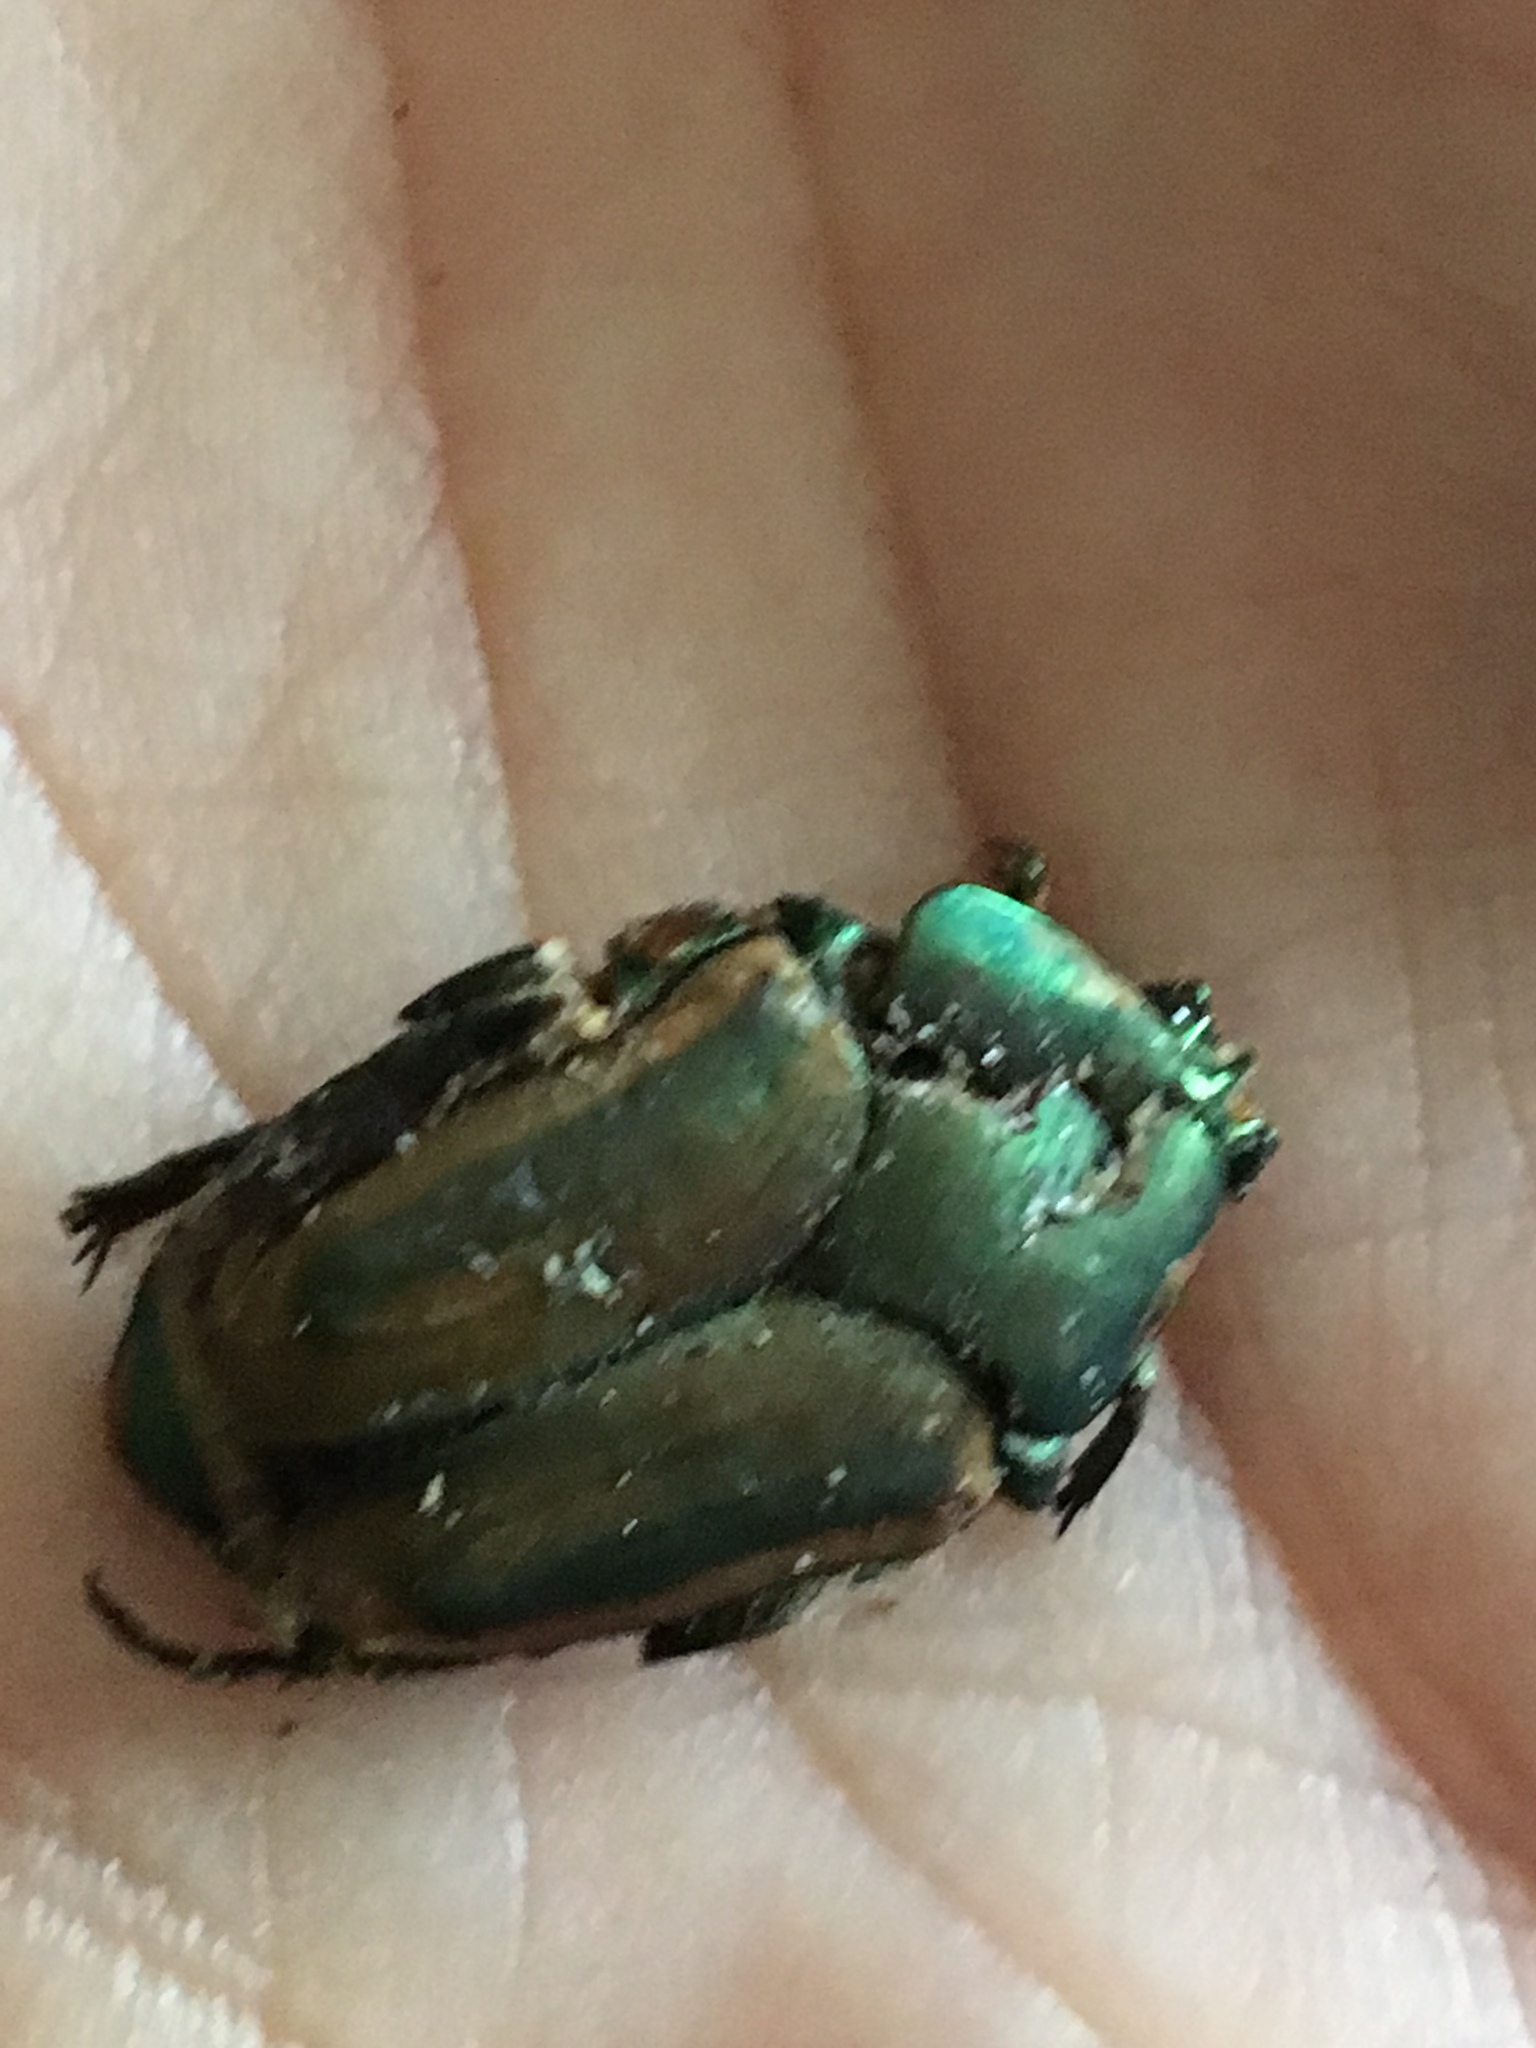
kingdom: Animalia
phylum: Arthropoda
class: Insecta
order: Coleoptera
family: Scarabaeidae
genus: Cotinis
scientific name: Cotinis nitida
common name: Common green june beetle
